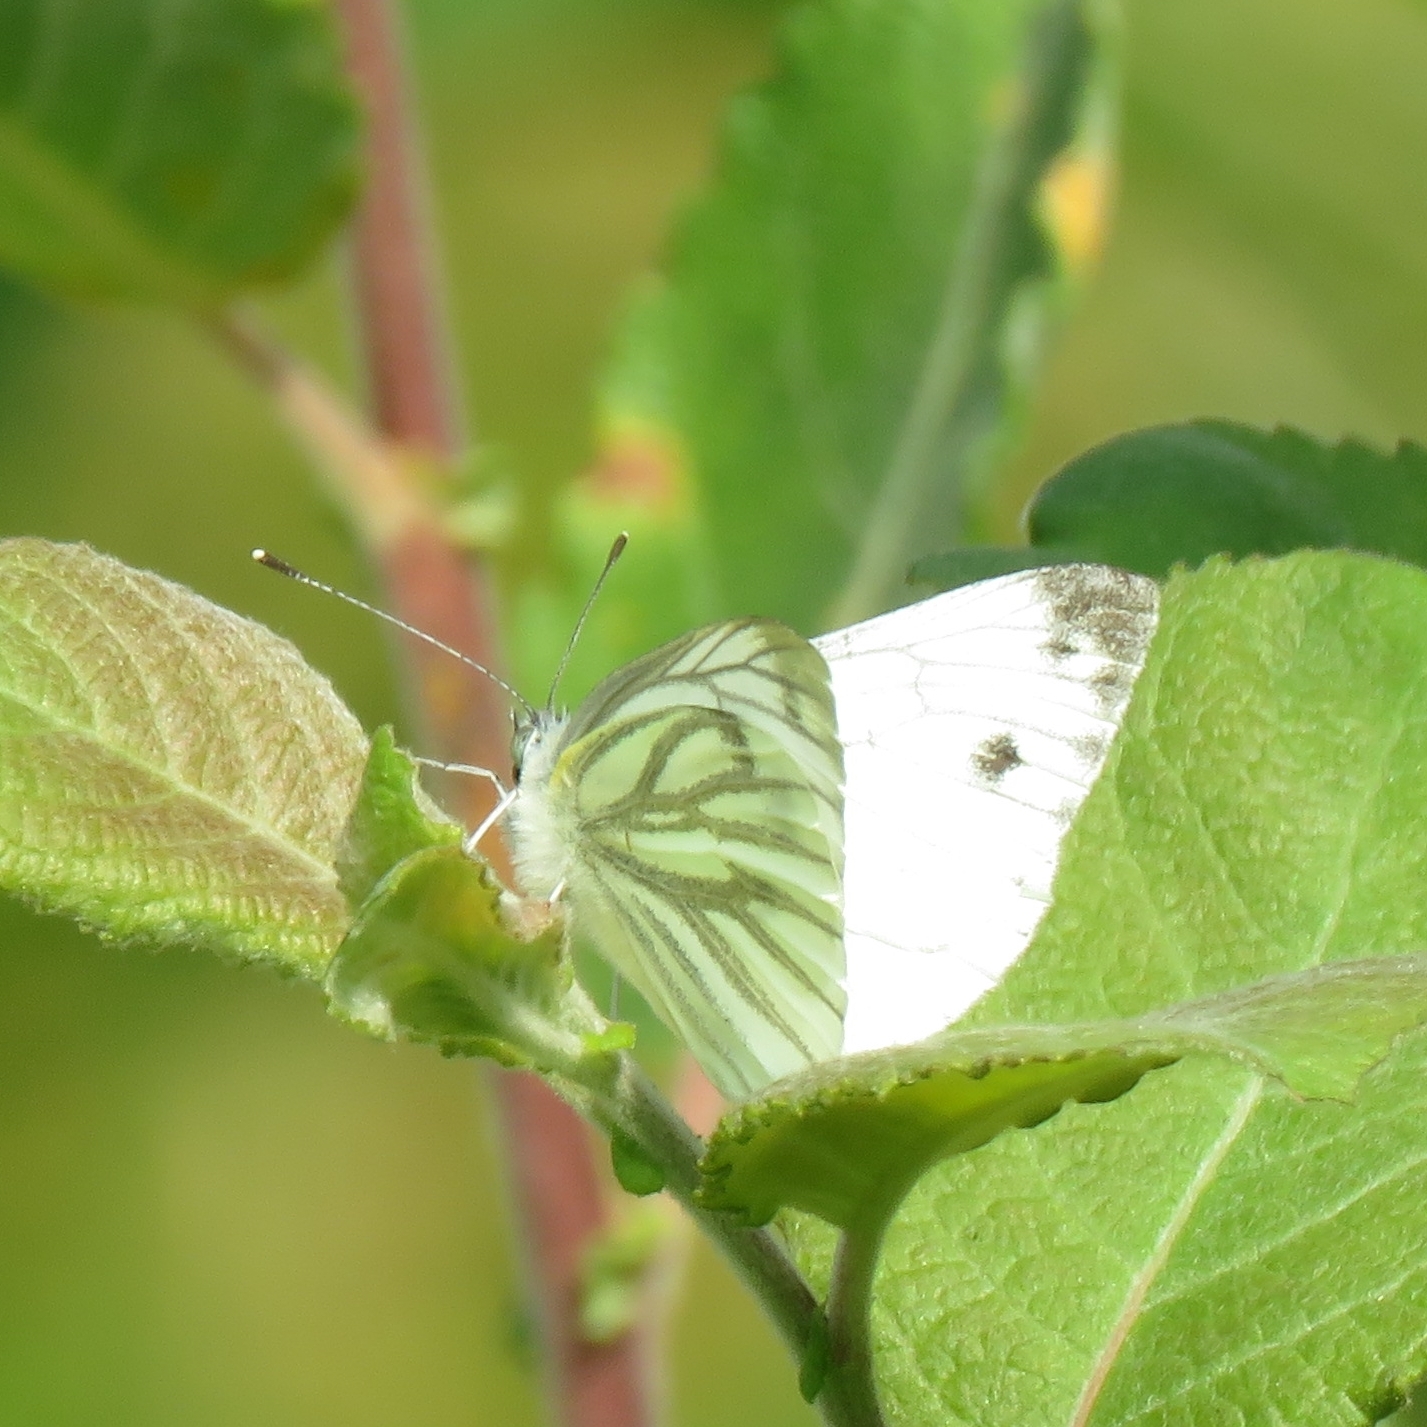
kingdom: Animalia
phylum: Arthropoda
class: Insecta
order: Lepidoptera
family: Pieridae
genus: Pieris
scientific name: Pieris napi
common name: Green-veined white
